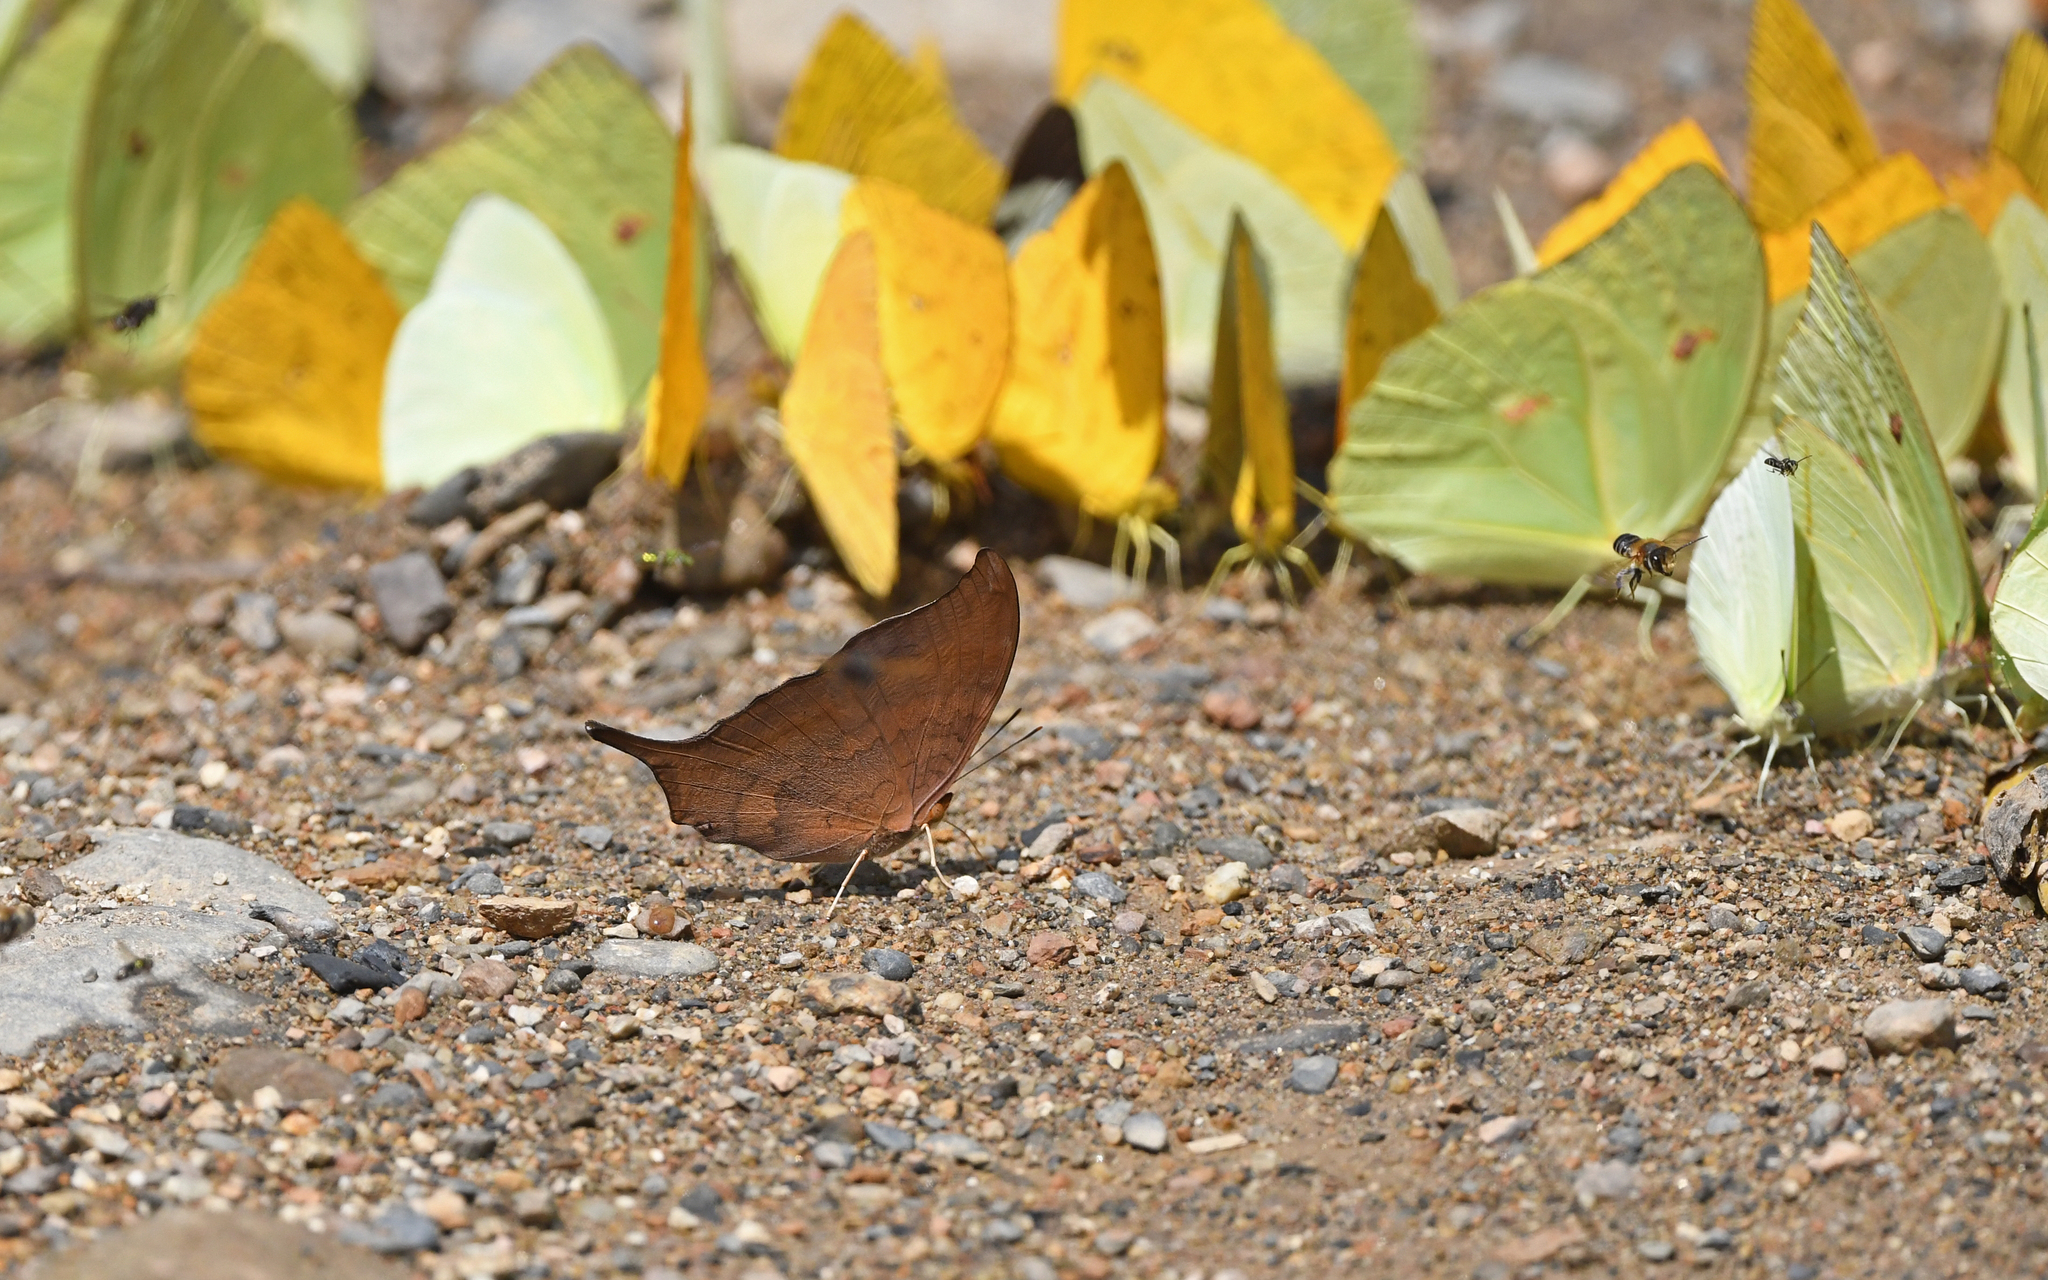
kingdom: Animalia
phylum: Arthropoda
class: Insecta
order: Lepidoptera
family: Nymphalidae
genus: Marpesia
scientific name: Marpesia furcula
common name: Sunset daggerwing
